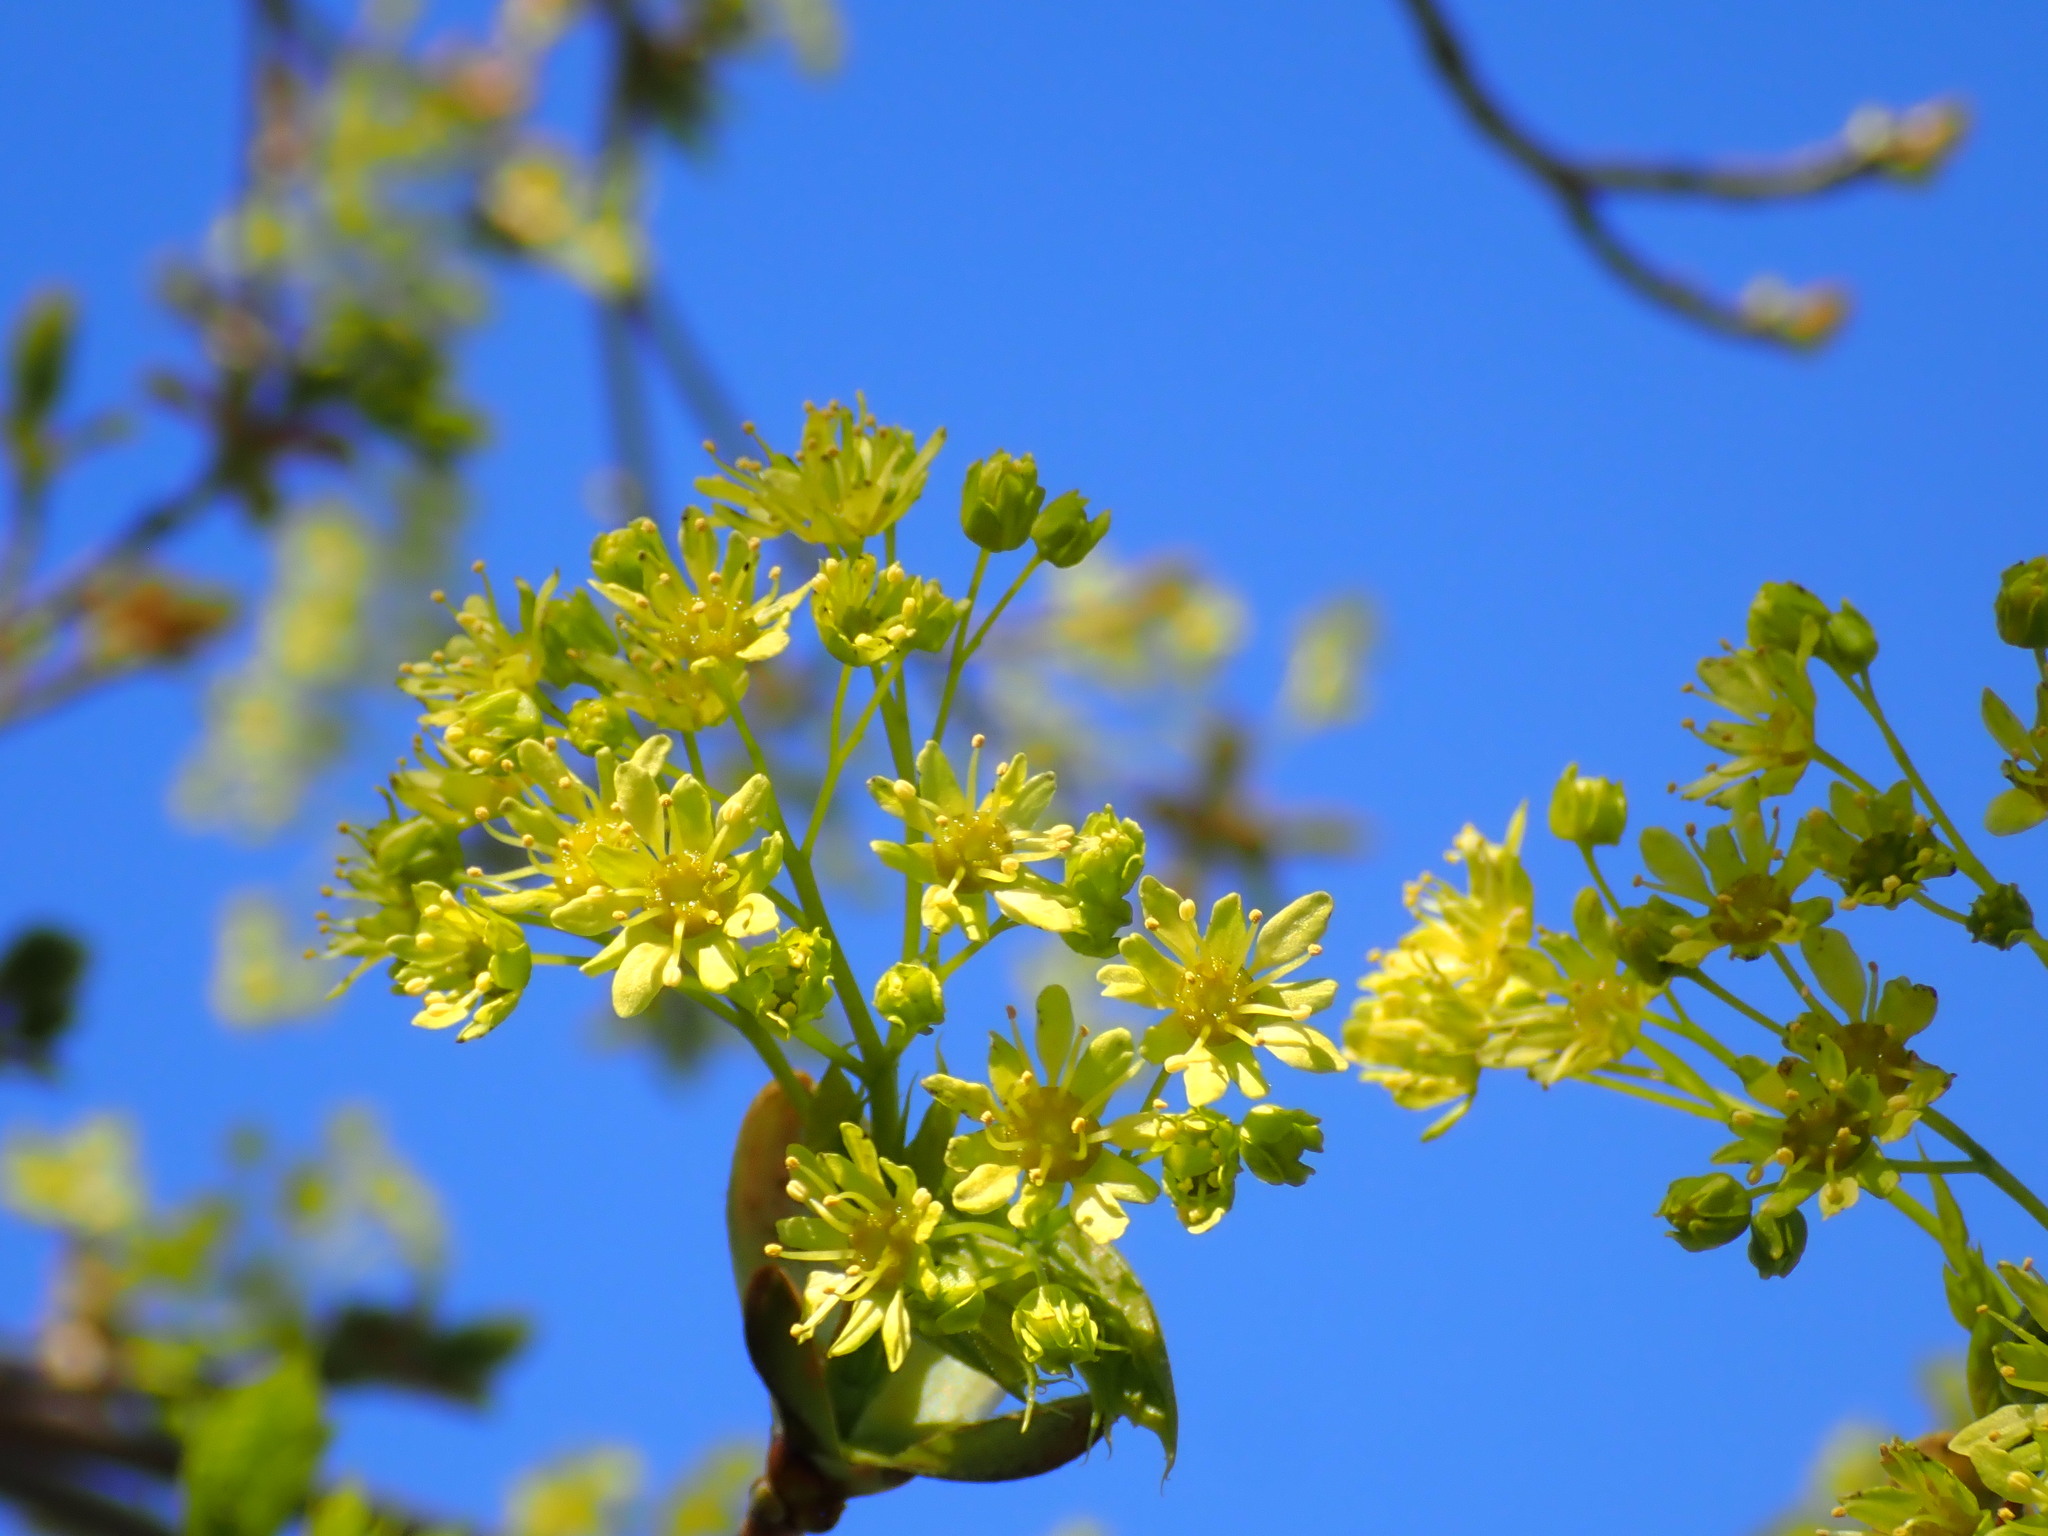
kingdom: Plantae
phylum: Tracheophyta
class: Magnoliopsida
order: Sapindales
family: Sapindaceae
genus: Acer
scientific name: Acer platanoides
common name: Norway maple
